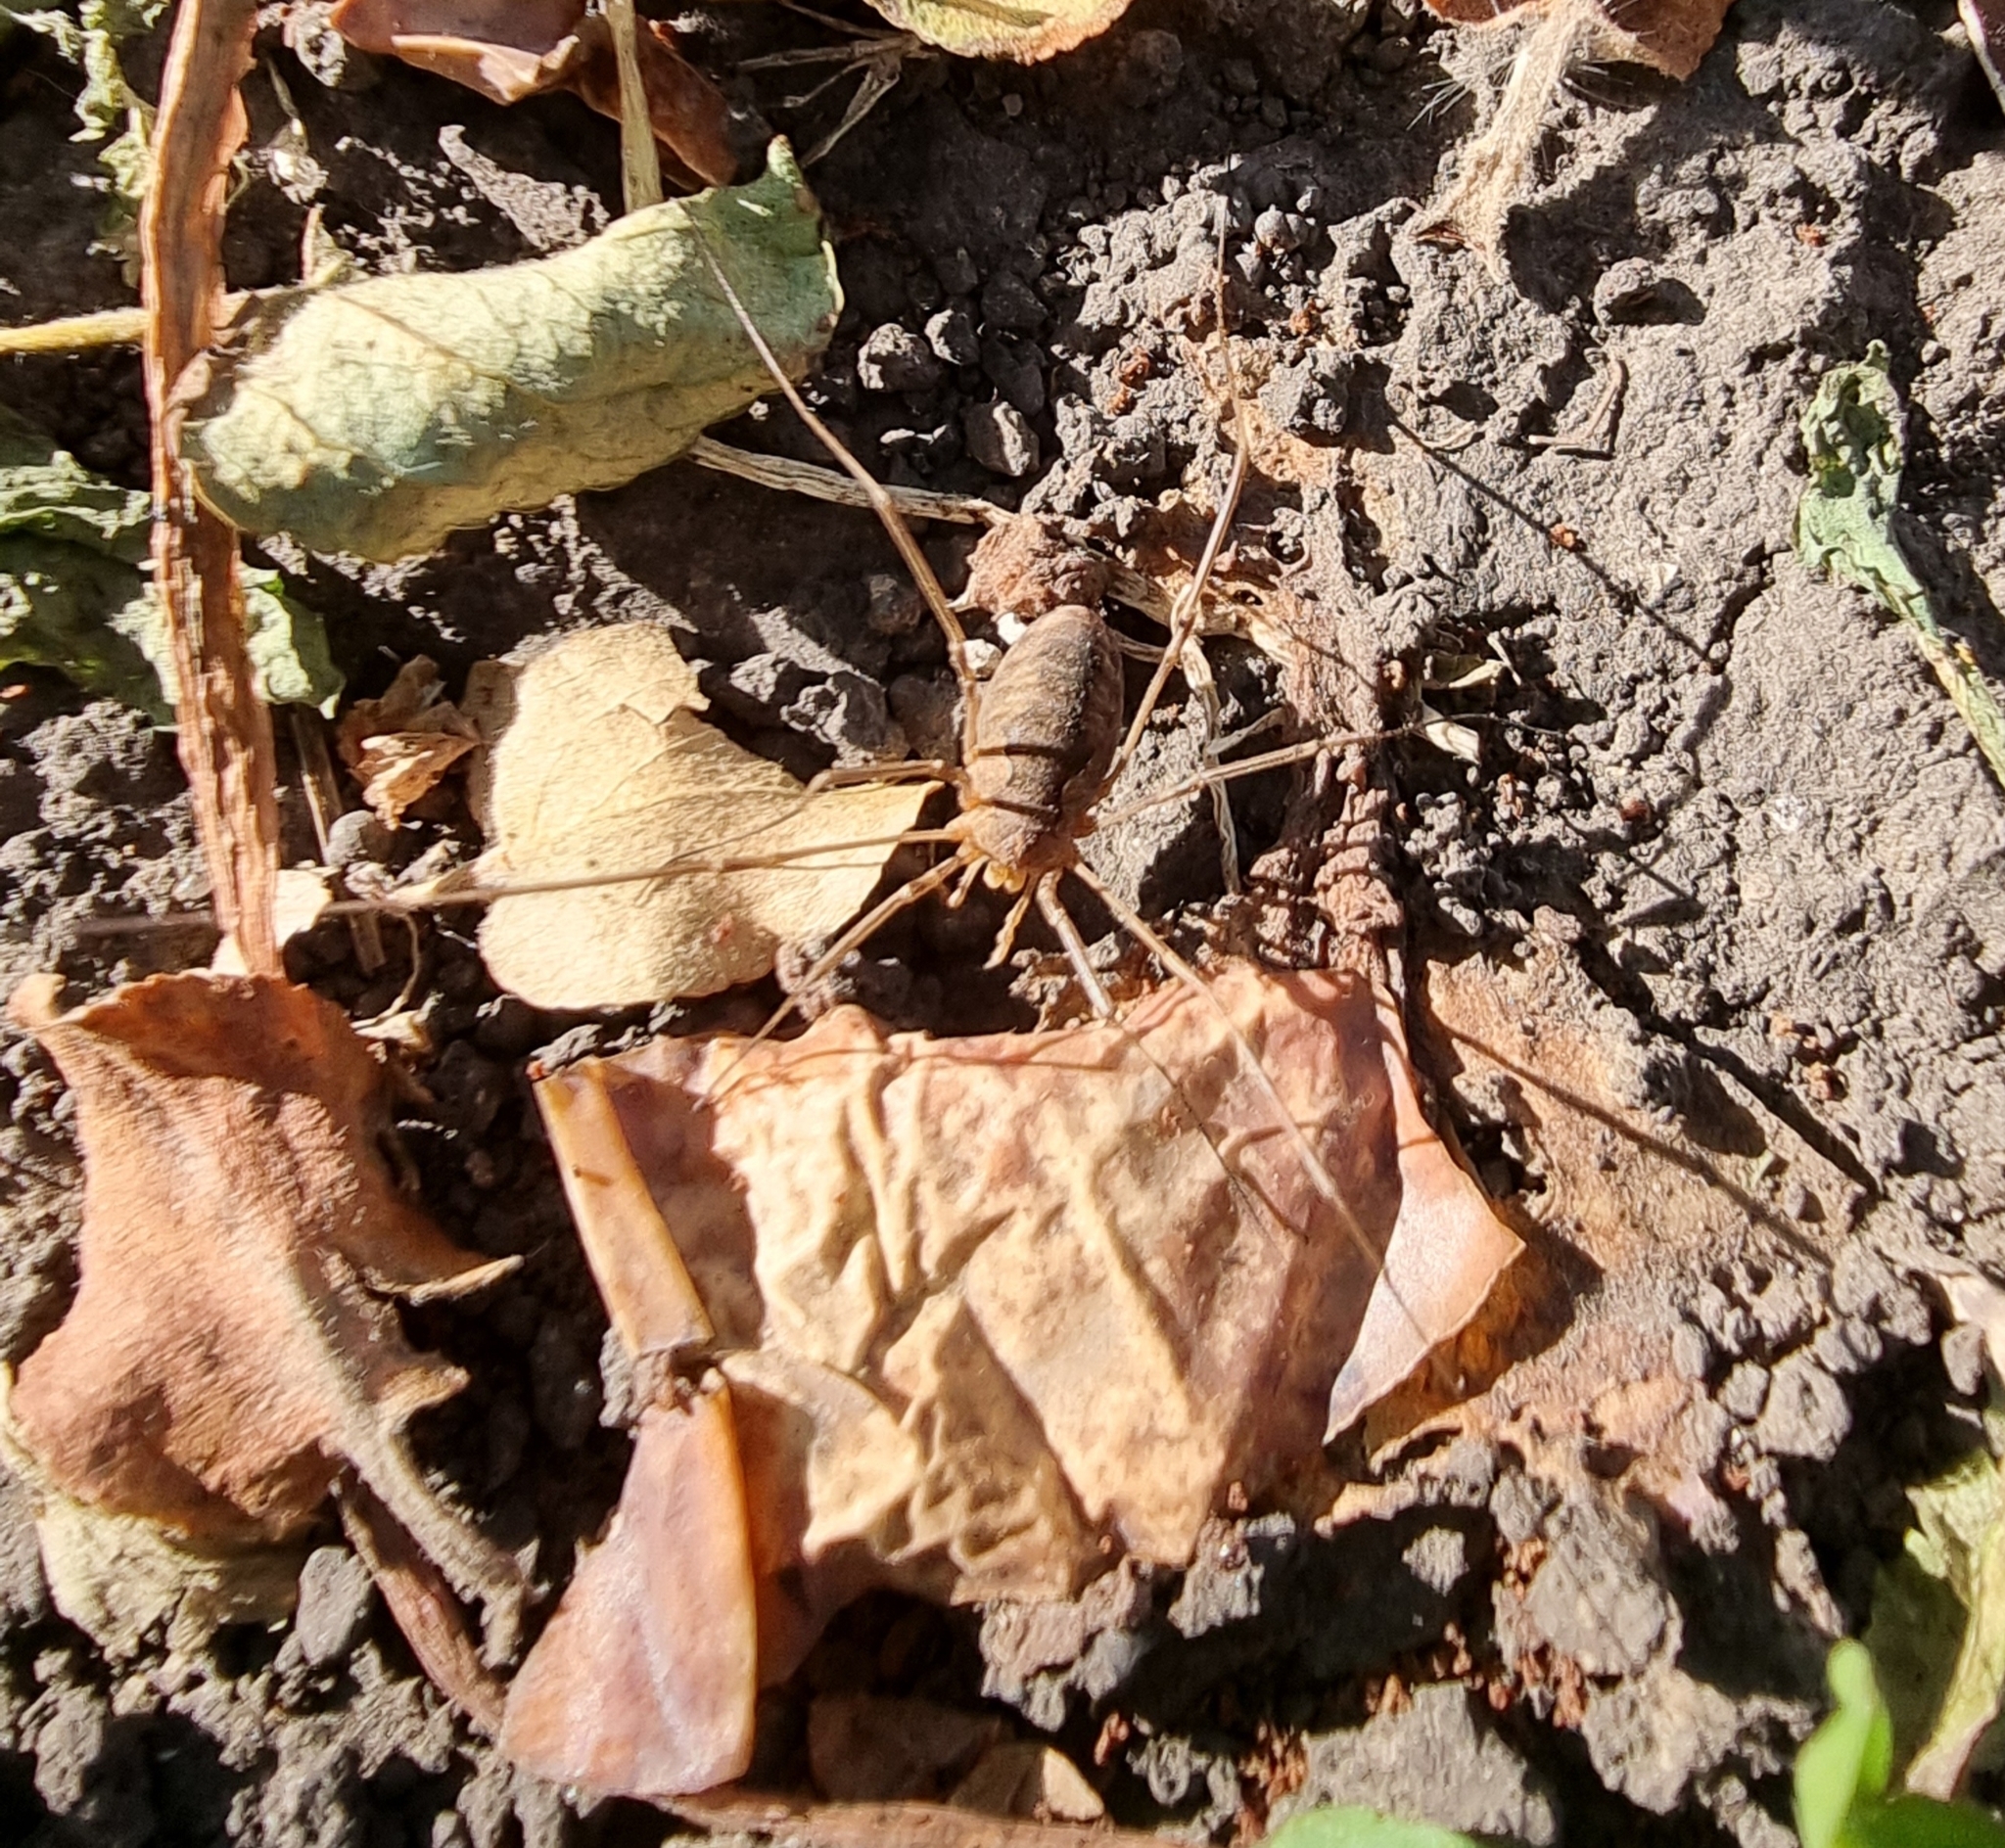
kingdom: Animalia
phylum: Arthropoda
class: Arachnida
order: Opiliones
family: Phalangiidae
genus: Phalangium
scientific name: Phalangium opilio
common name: Daddy longleg
